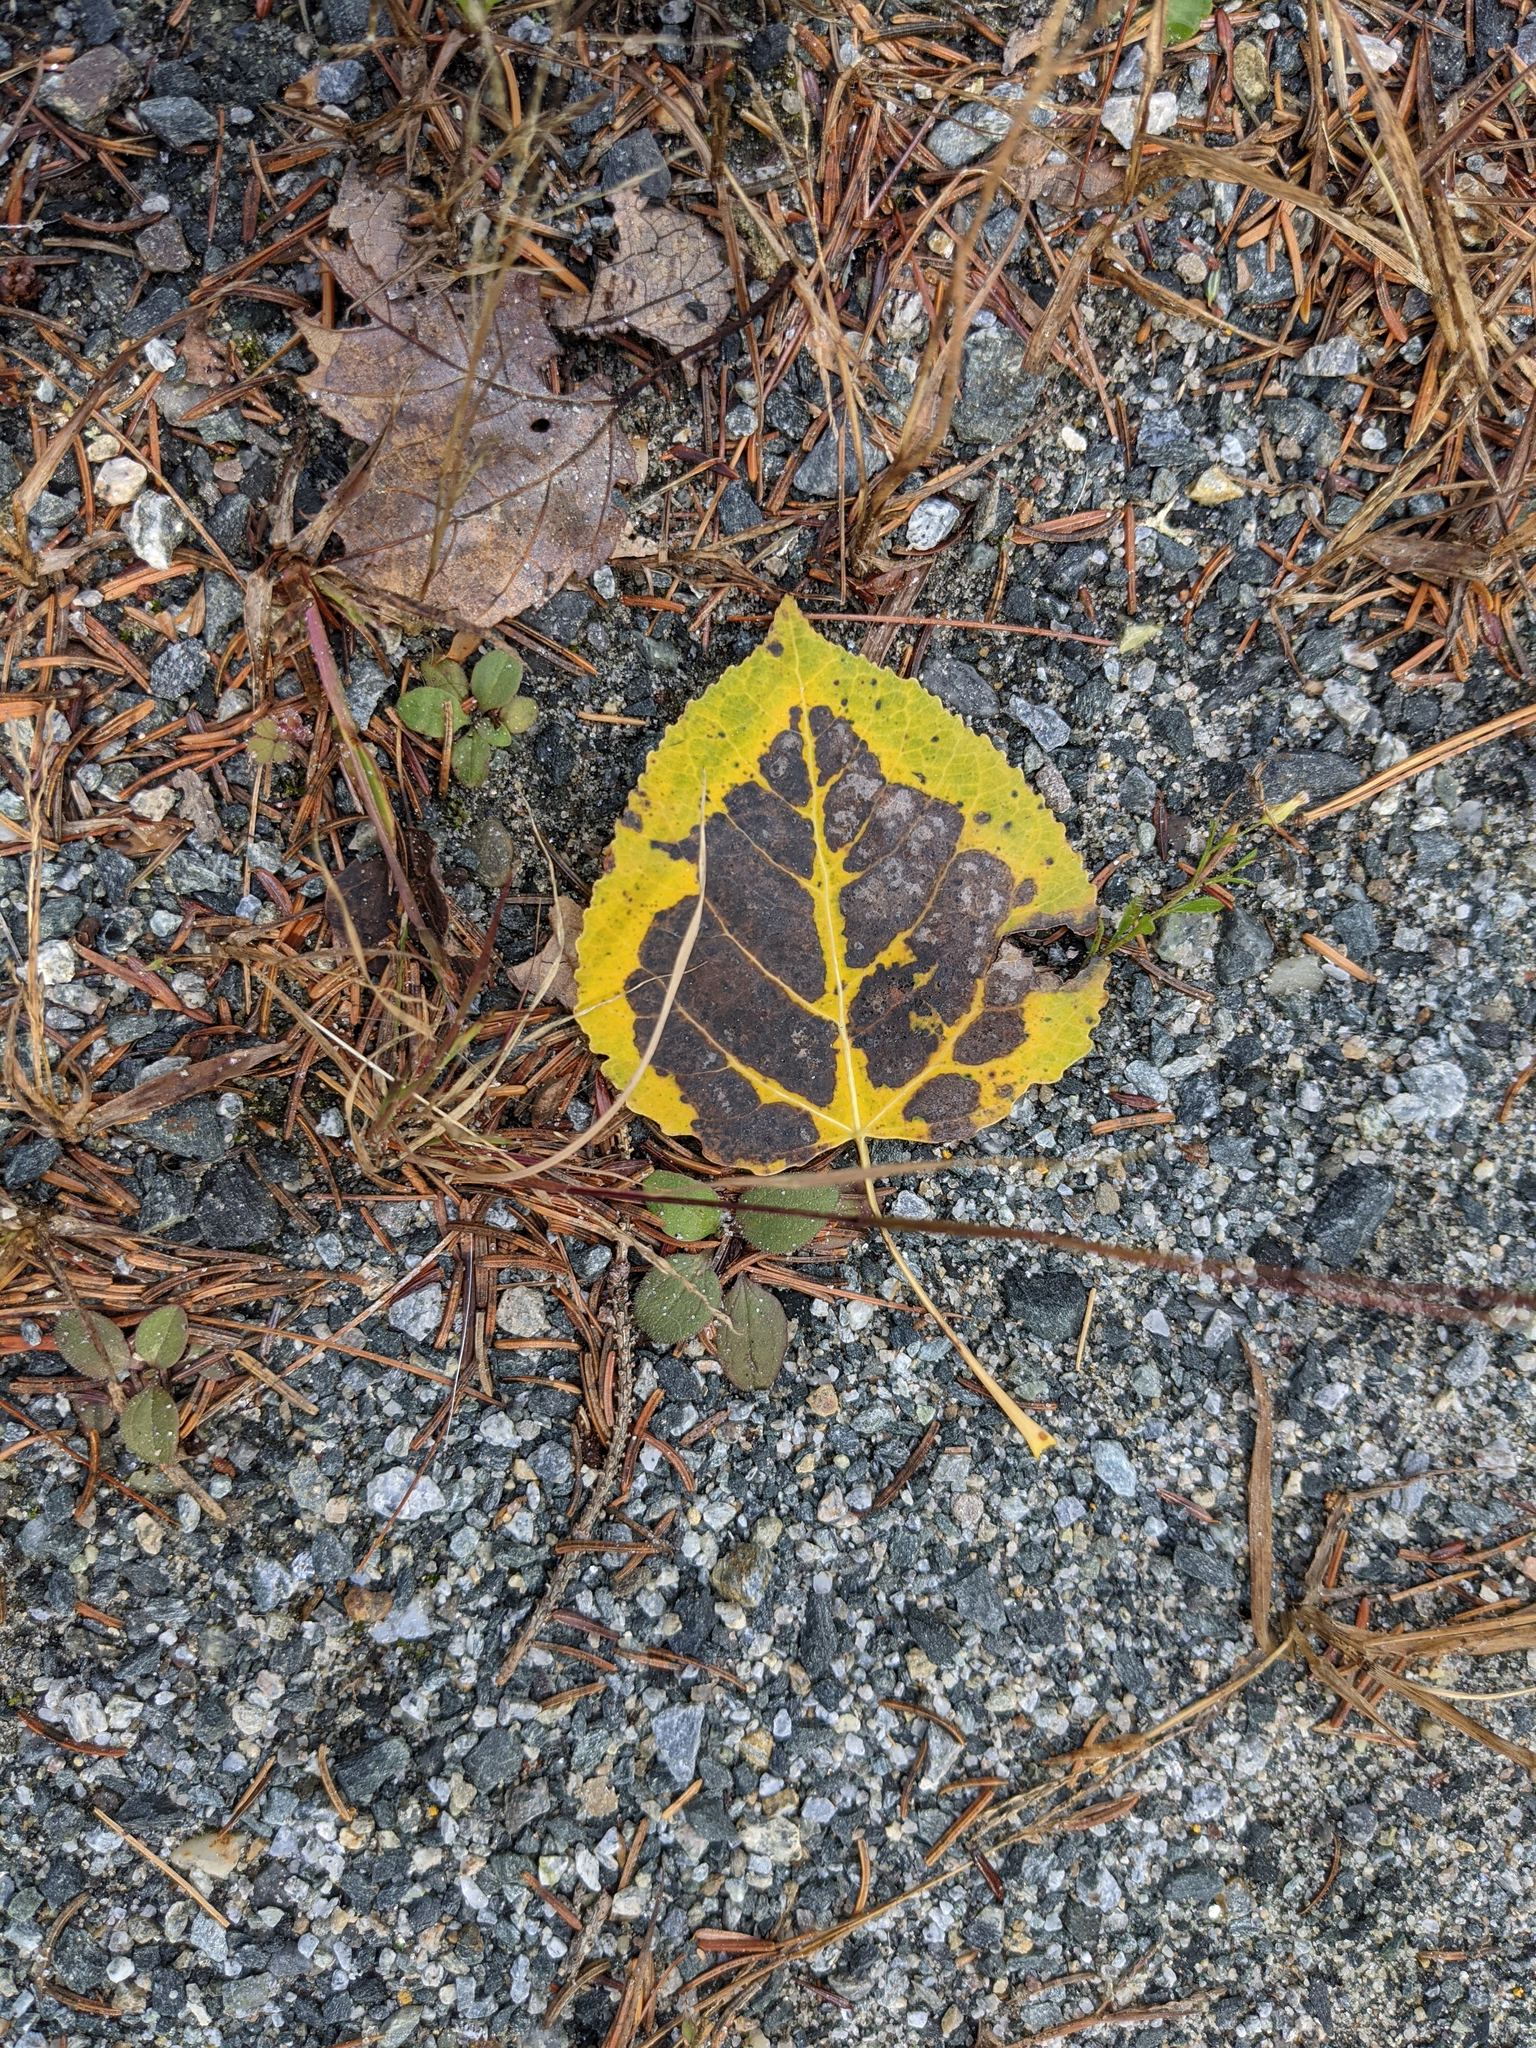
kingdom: Plantae
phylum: Tracheophyta
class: Magnoliopsida
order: Malpighiales
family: Salicaceae
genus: Populus
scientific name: Populus tremuloides
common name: Quaking aspen
